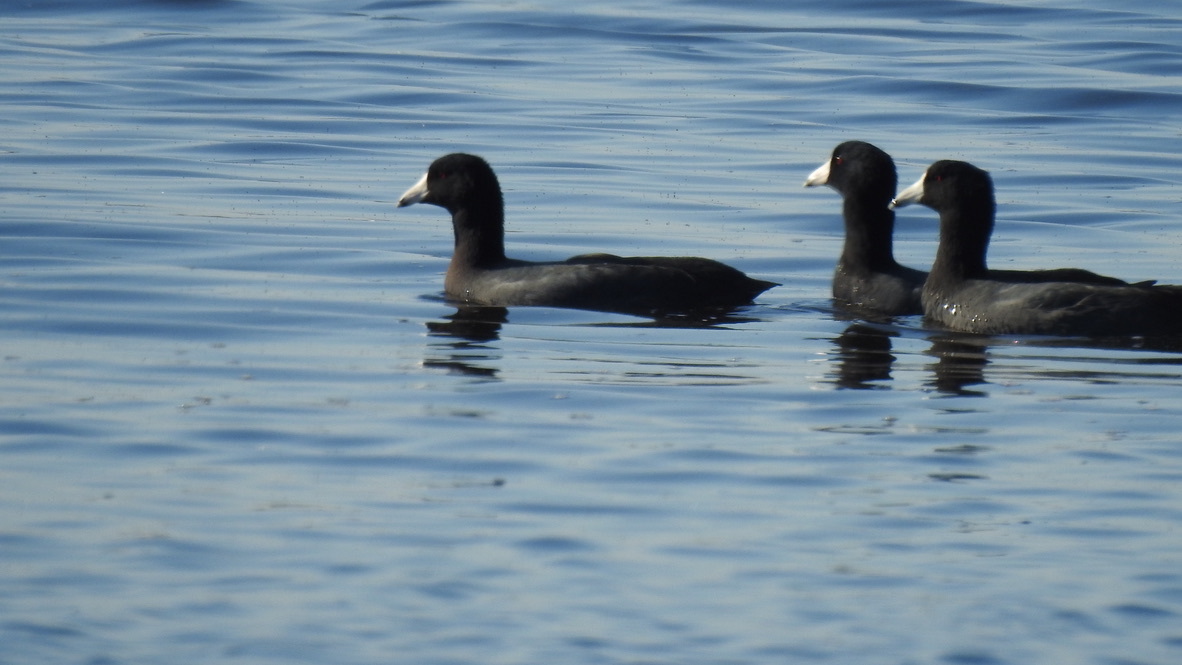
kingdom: Animalia
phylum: Chordata
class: Aves
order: Gruiformes
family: Rallidae
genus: Fulica
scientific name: Fulica americana
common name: American coot
